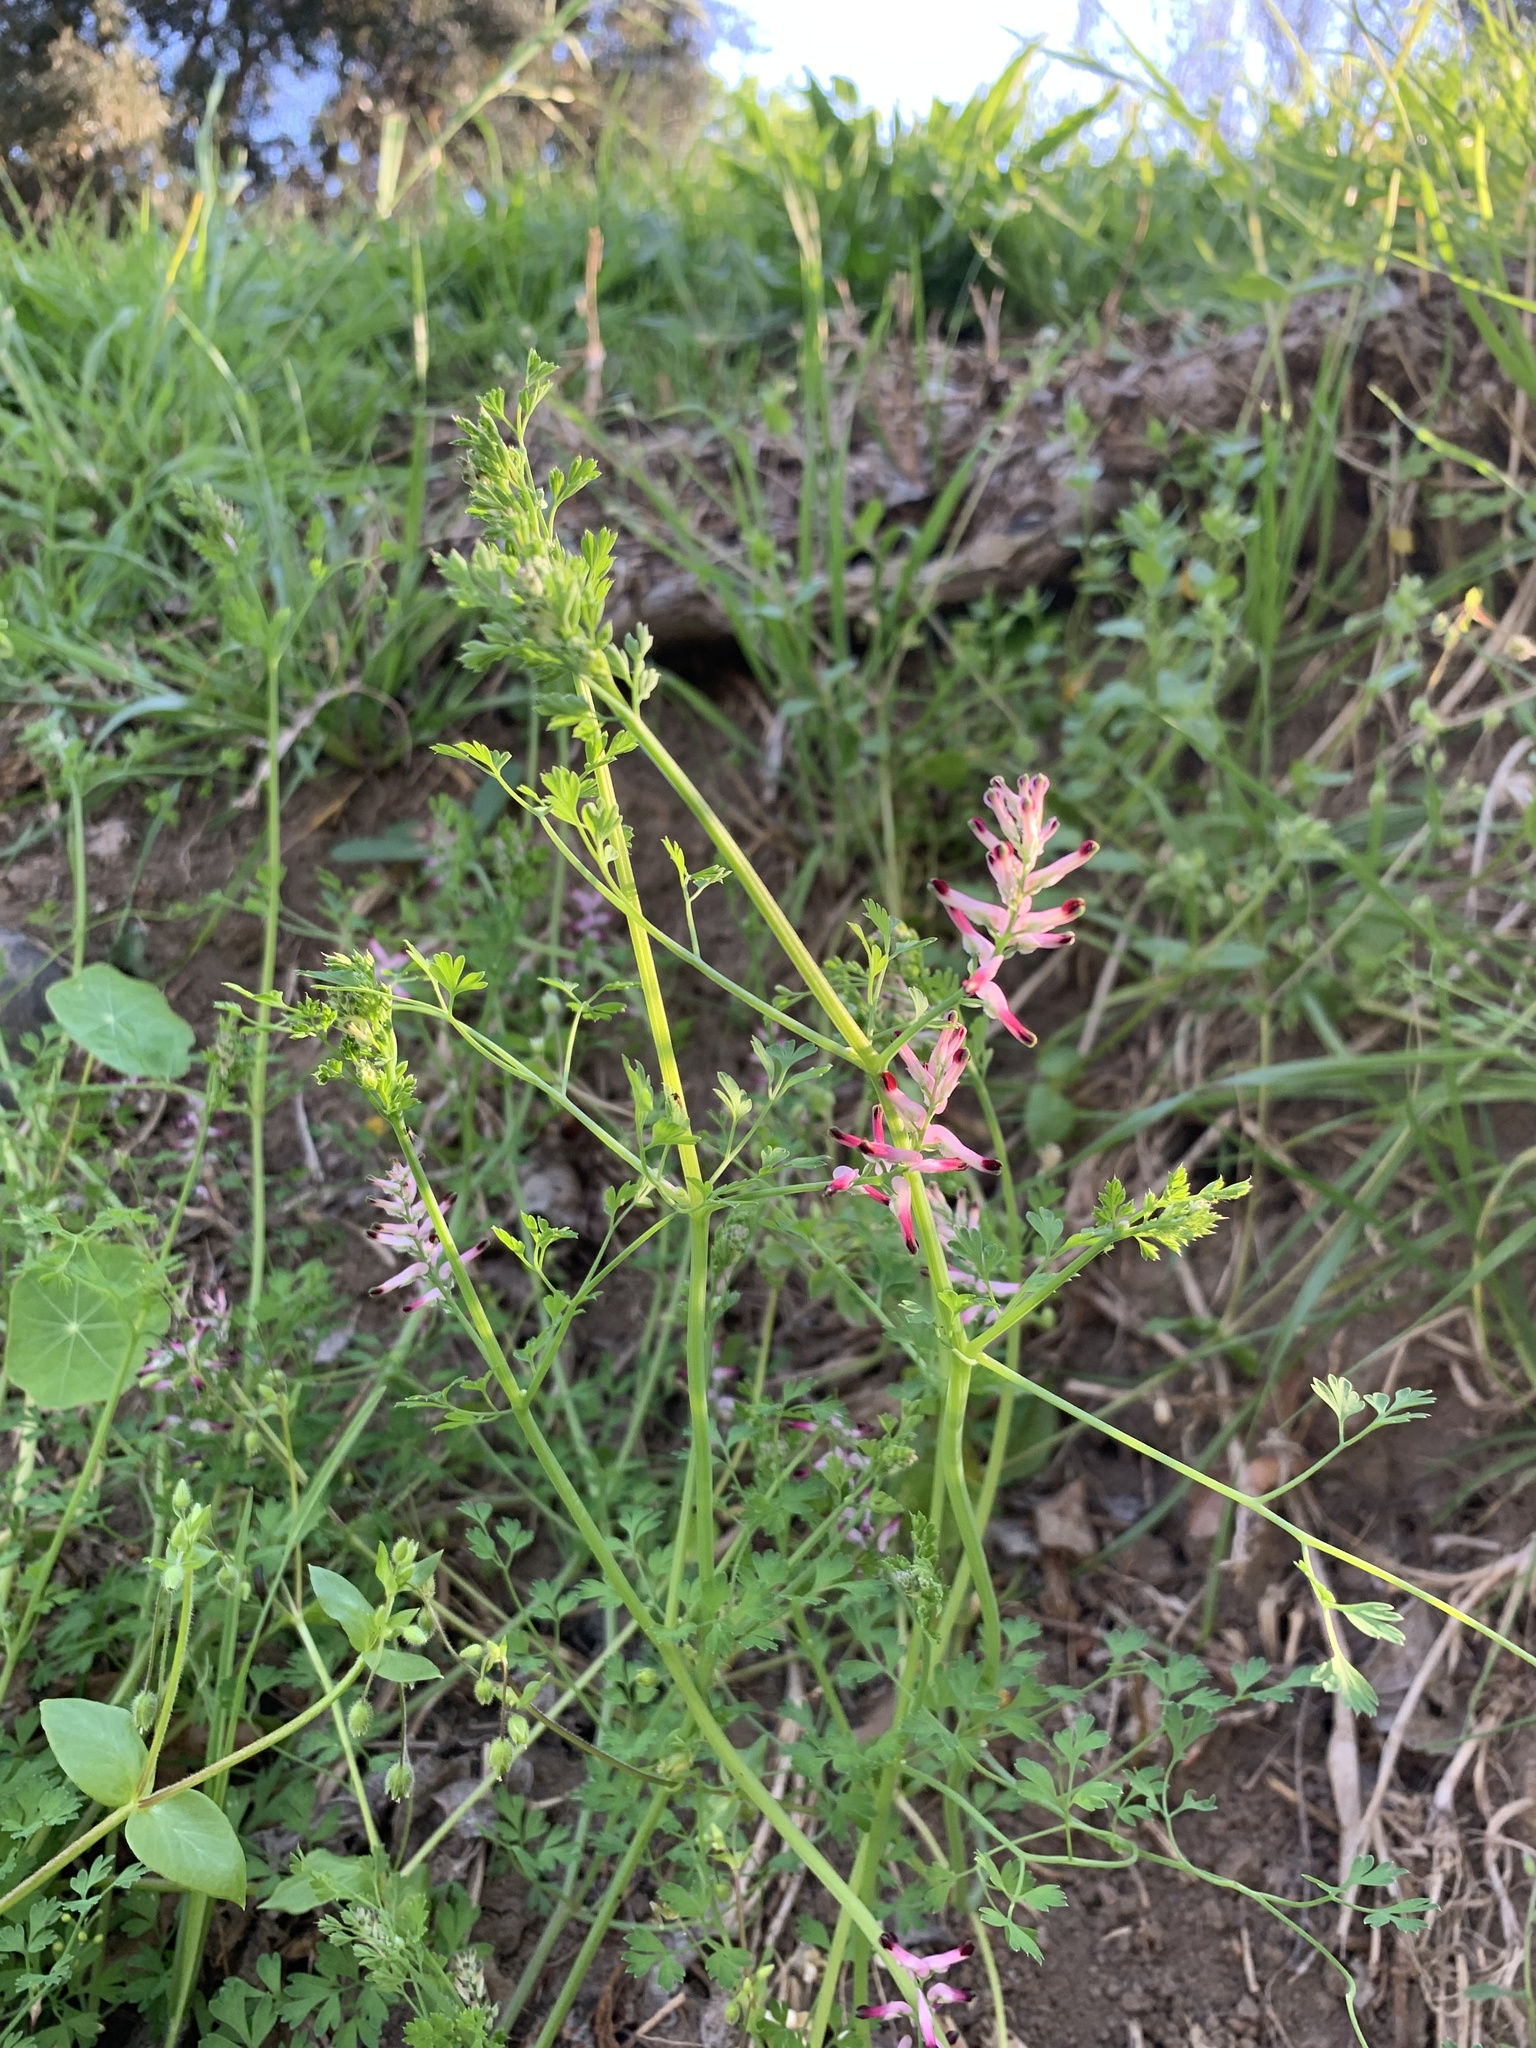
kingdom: Plantae
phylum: Tracheophyta
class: Magnoliopsida
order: Ranunculales
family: Papaveraceae
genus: Fumaria
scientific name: Fumaria muralis
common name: Common ramping-fumitory
